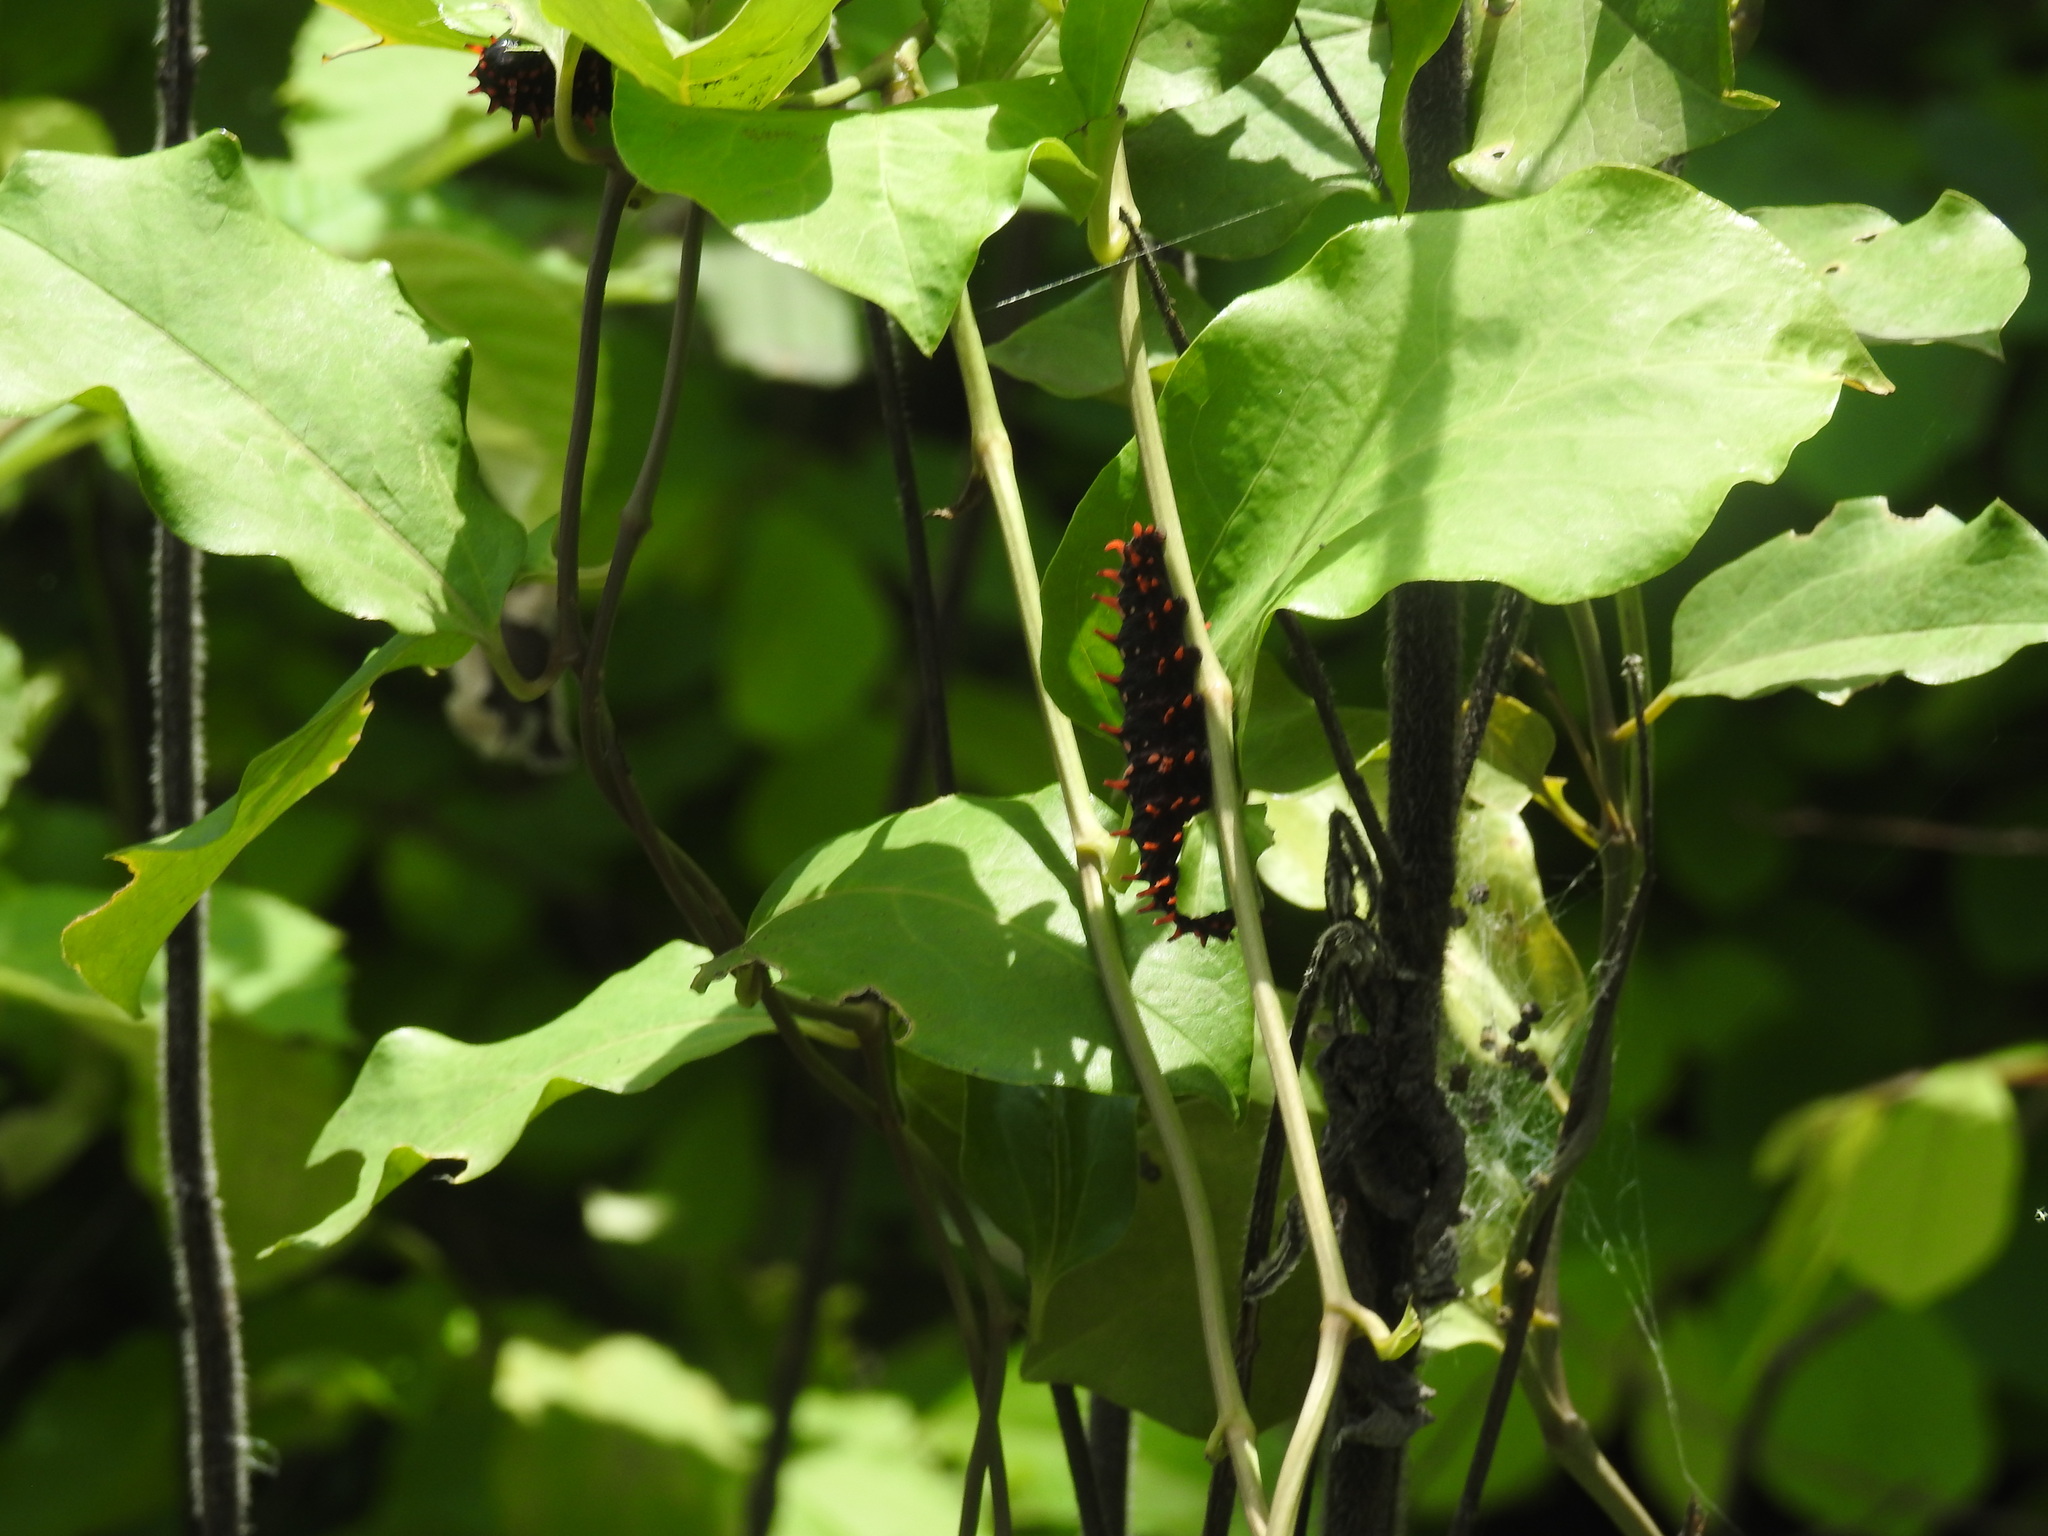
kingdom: Animalia
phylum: Arthropoda
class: Insecta
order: Lepidoptera
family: Papilionidae
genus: Pachliopta
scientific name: Pachliopta hector
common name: Crimson rose
